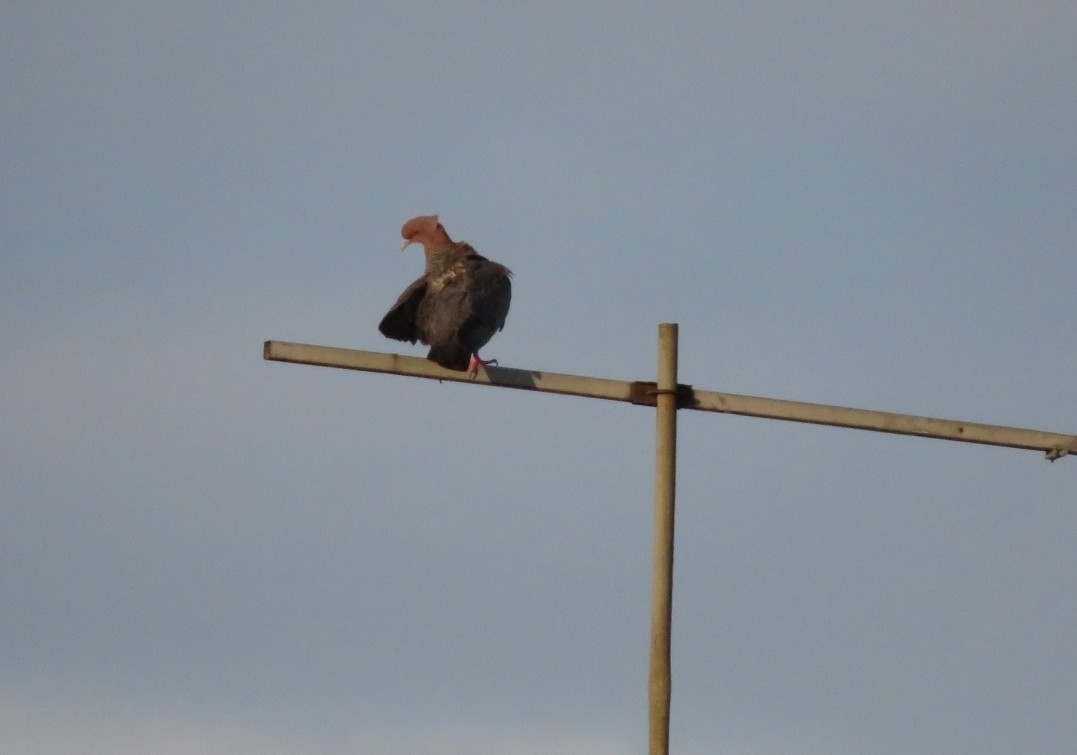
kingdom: Animalia
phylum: Chordata
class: Aves
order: Columbiformes
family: Columbidae
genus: Patagioenas
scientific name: Patagioenas picazuro
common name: Picazuro pigeon
